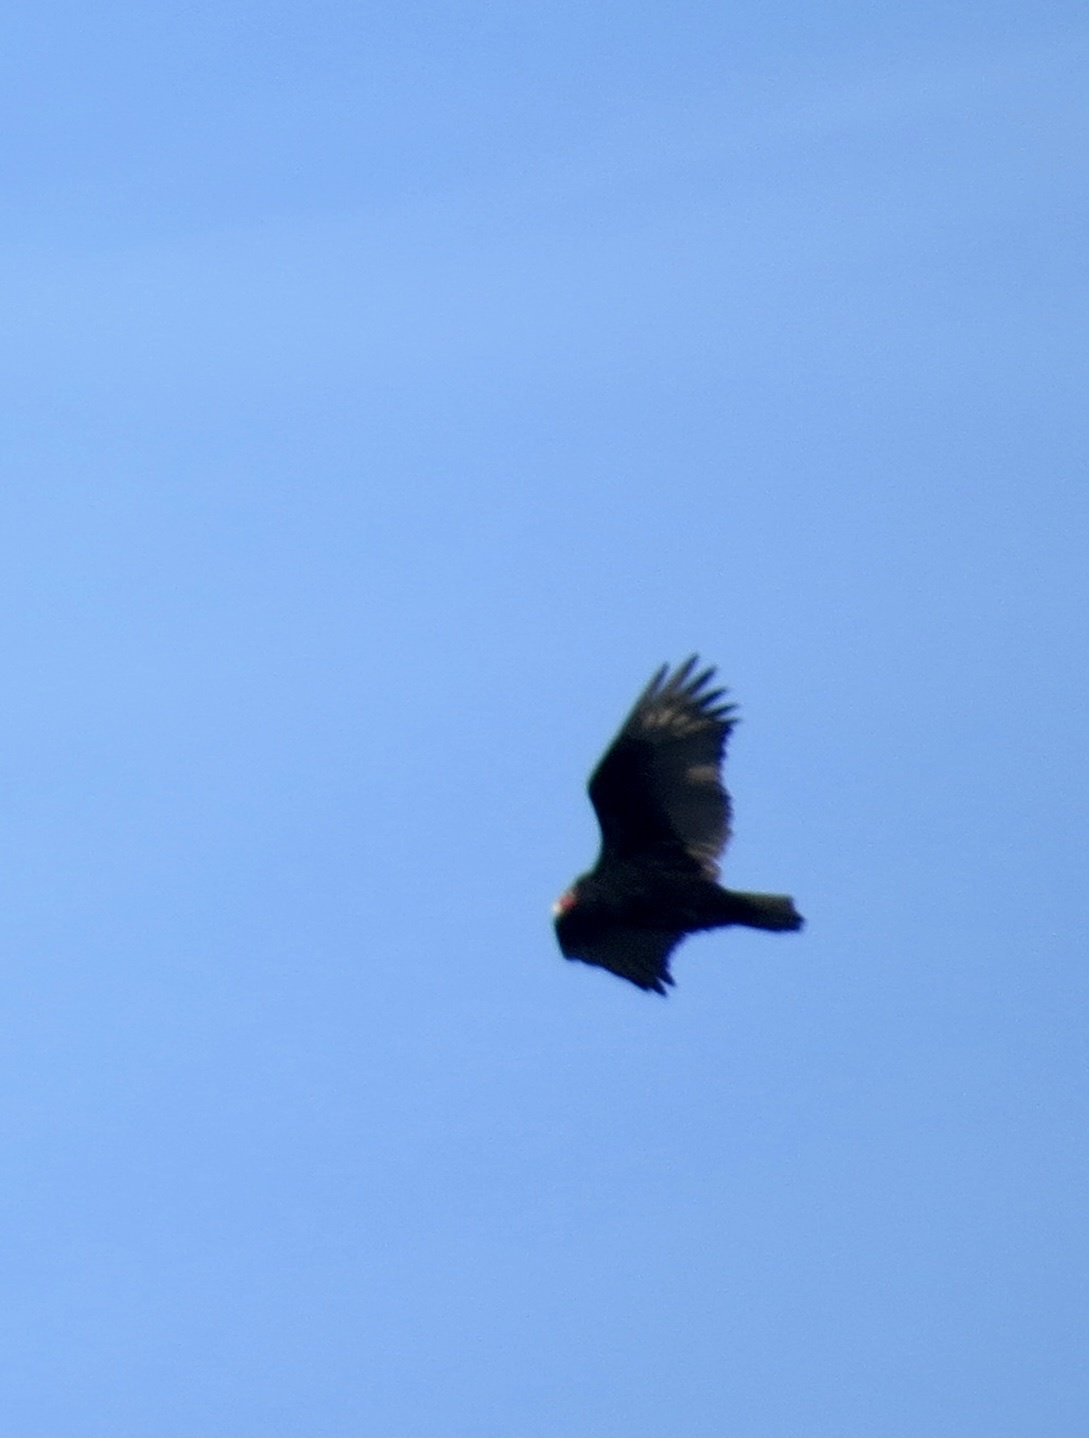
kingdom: Animalia
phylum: Chordata
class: Aves
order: Accipitriformes
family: Cathartidae
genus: Cathartes
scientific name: Cathartes aura
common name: Turkey vulture
